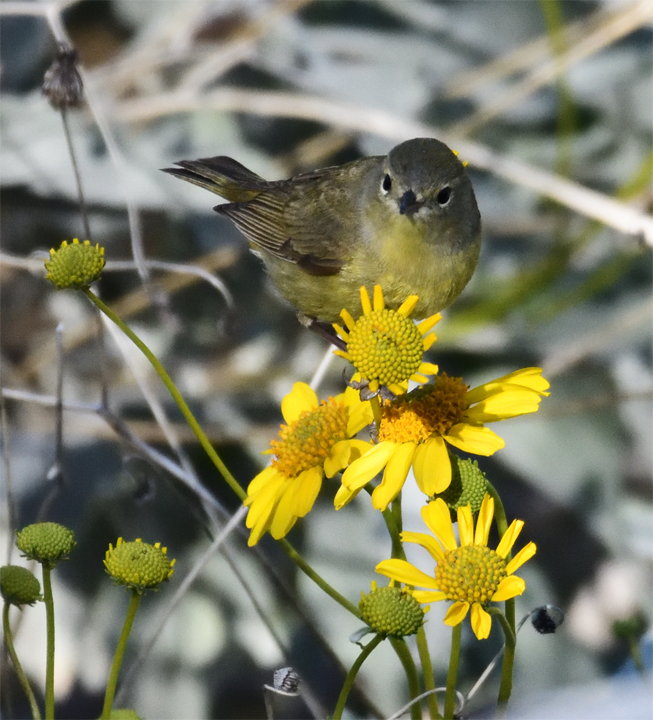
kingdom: Animalia
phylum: Chordata
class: Aves
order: Passeriformes
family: Parulidae
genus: Leiothlypis
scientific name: Leiothlypis celata
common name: Orange-crowned warbler
